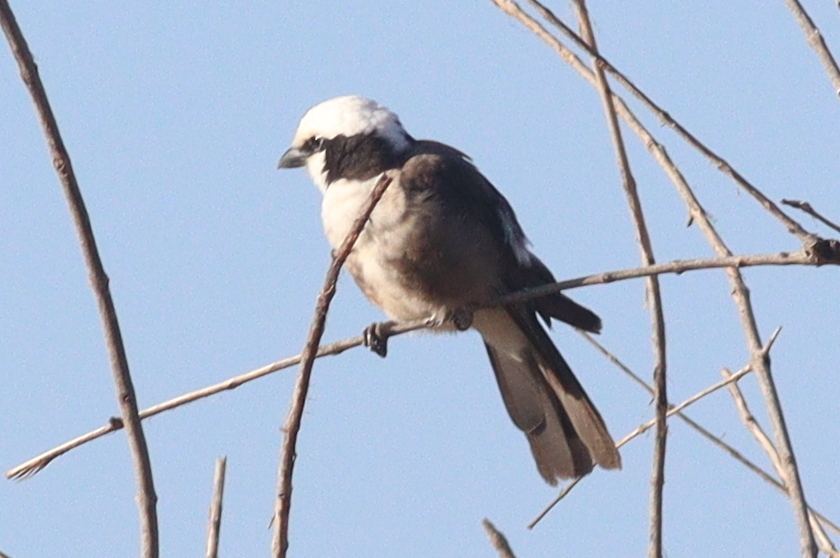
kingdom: Animalia
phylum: Chordata
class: Aves
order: Passeriformes
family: Laniidae
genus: Eurocephalus
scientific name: Eurocephalus ruppelli
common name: Northern white-crowned shrike
